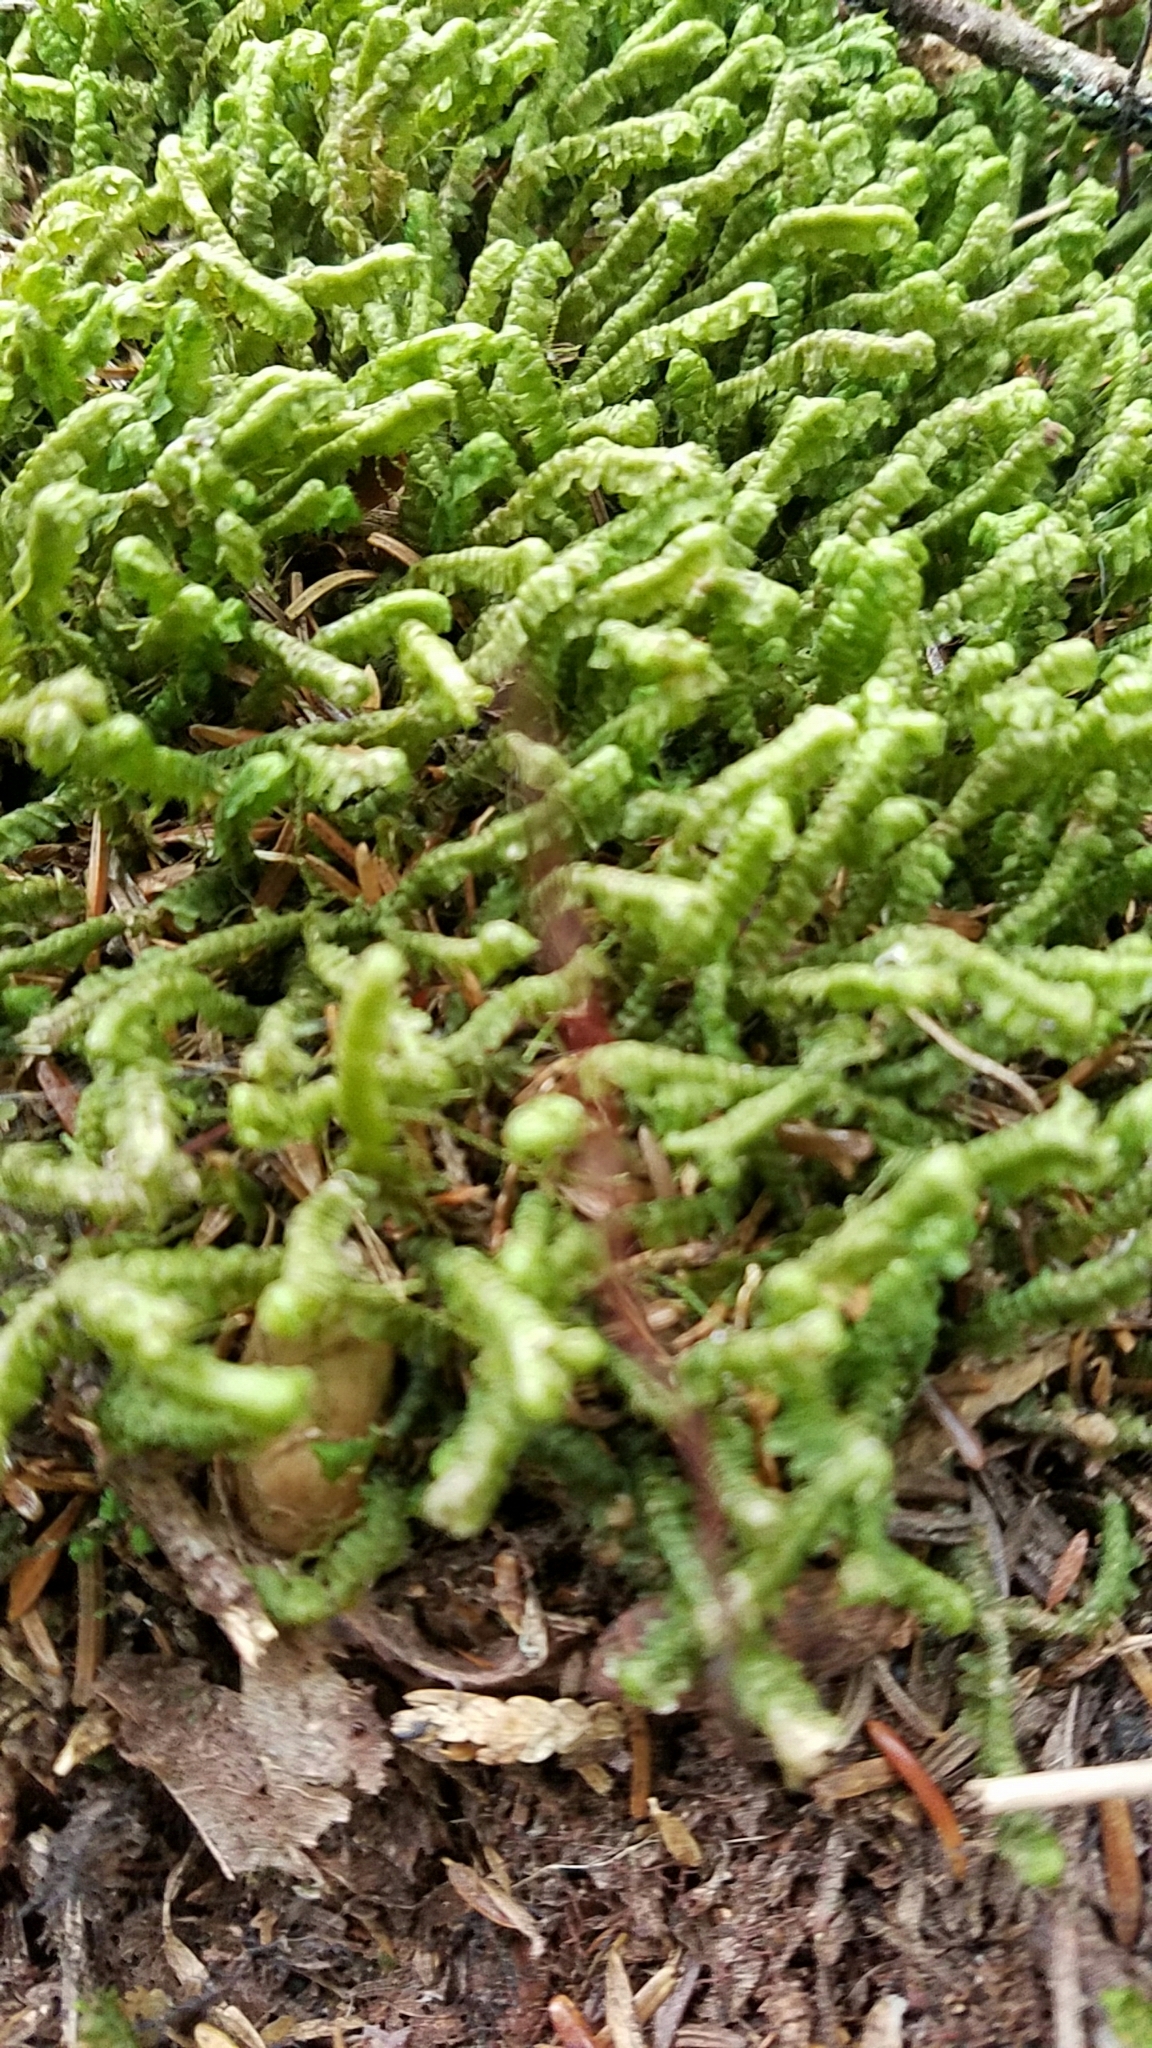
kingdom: Plantae
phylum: Marchantiophyta
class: Jungermanniopsida
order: Jungermanniales
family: Lepidoziaceae
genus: Bazzania
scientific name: Bazzania trilobata
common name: Three-lobed whipwort
